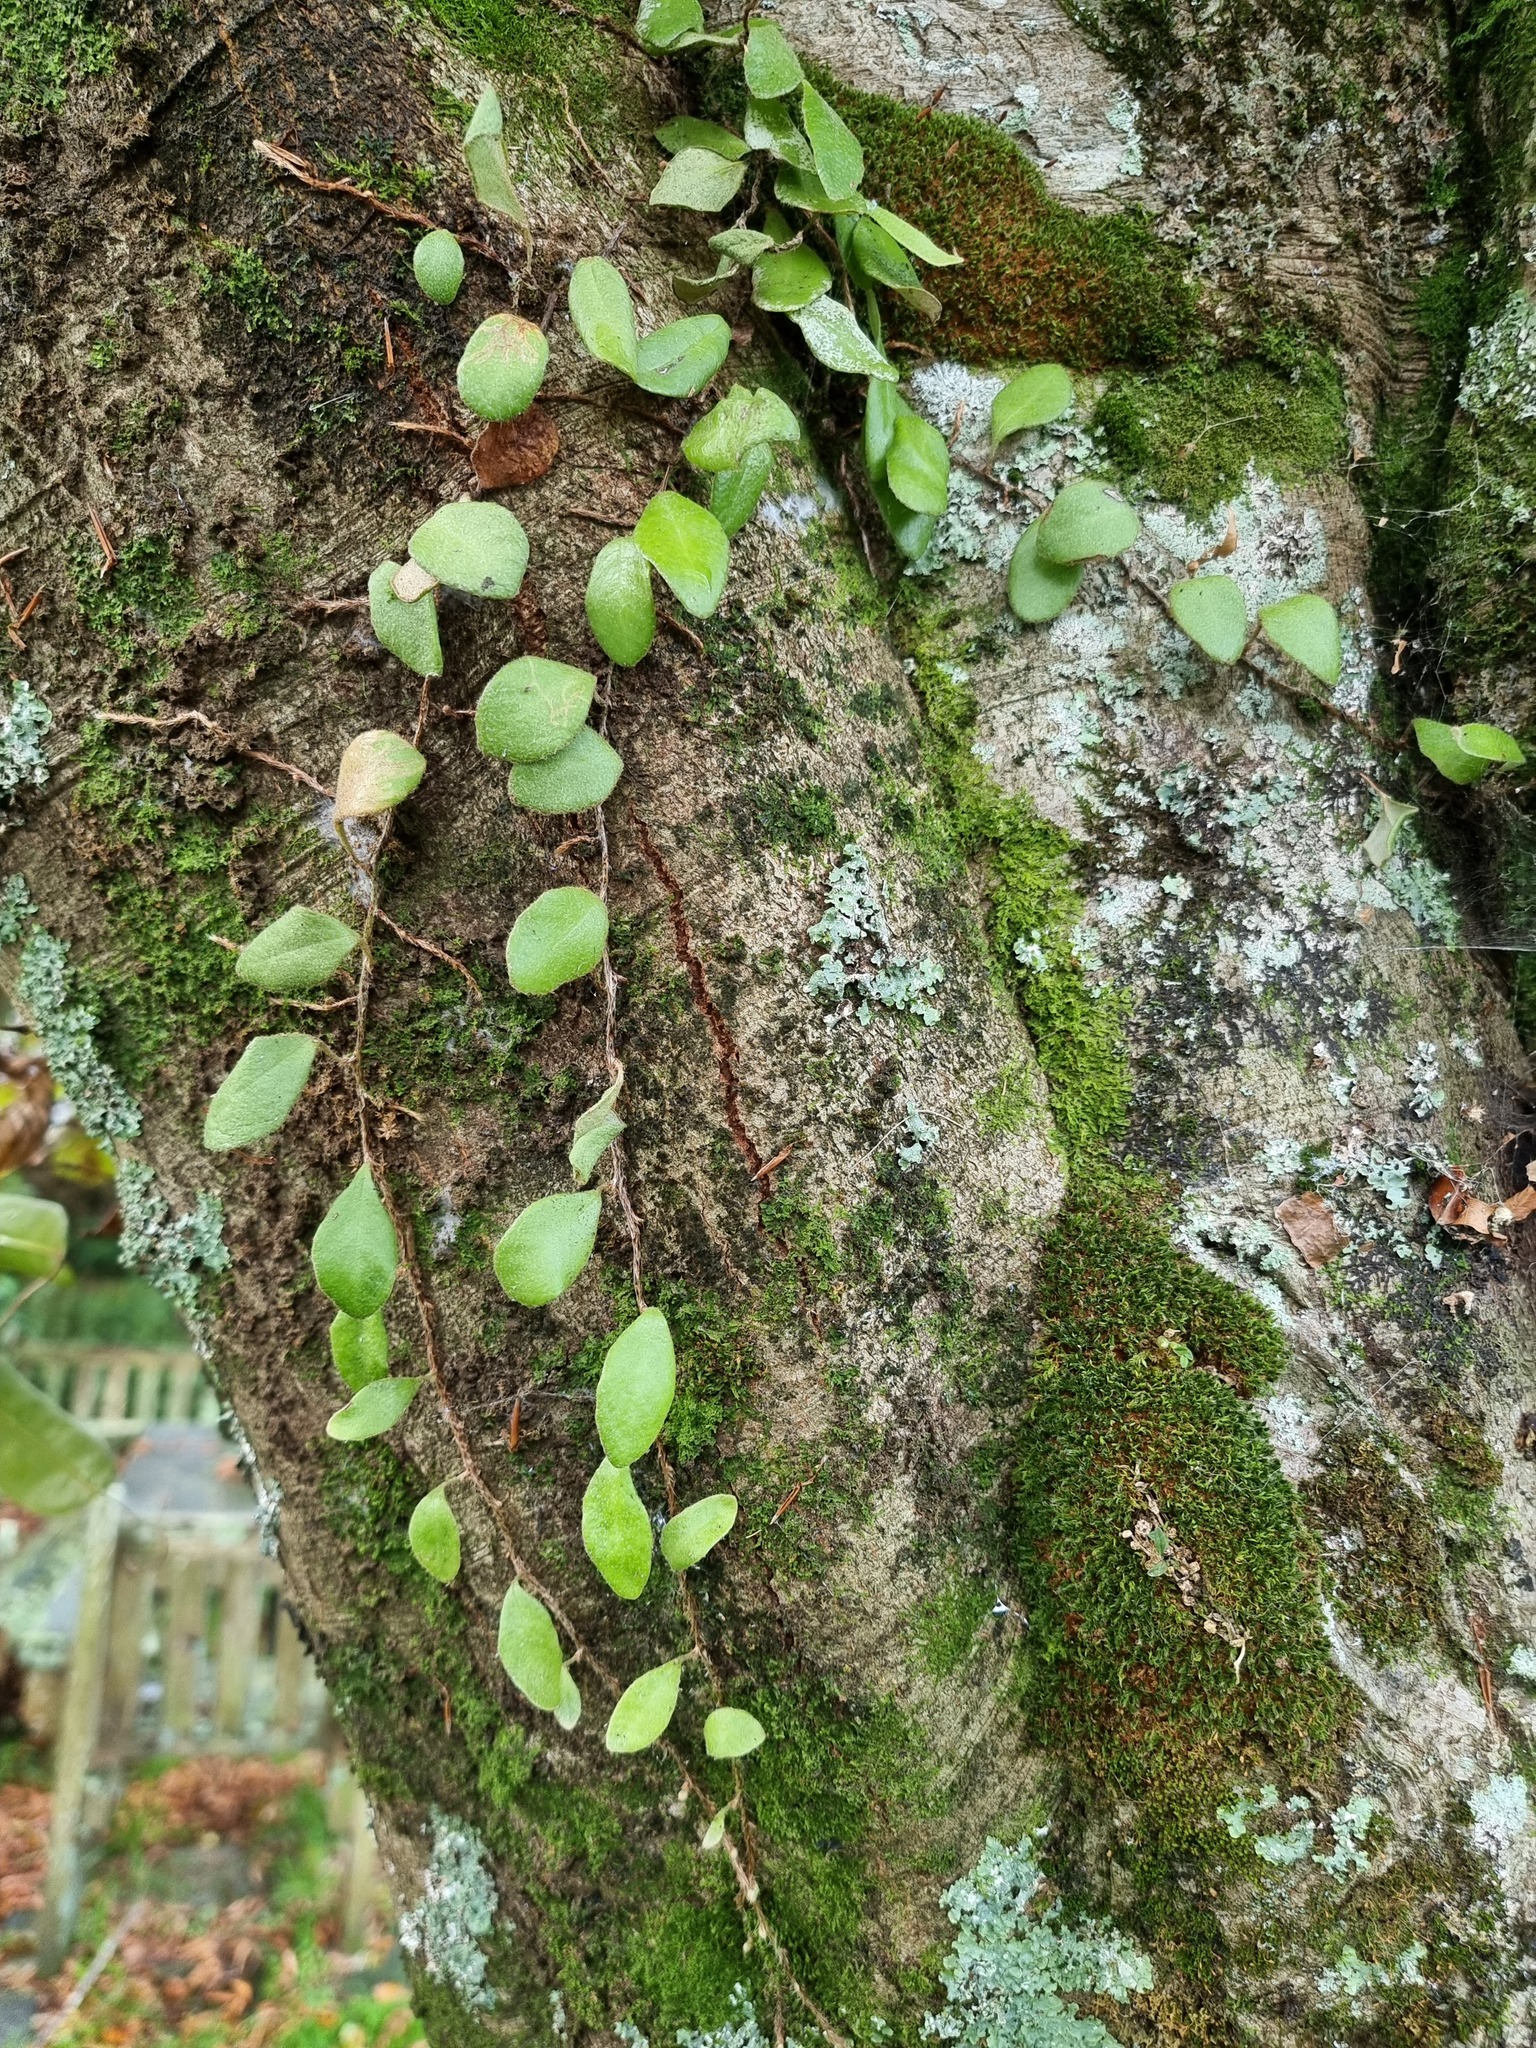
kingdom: Plantae
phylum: Tracheophyta
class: Polypodiopsida
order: Polypodiales
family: Polypodiaceae
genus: Pyrrosia
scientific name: Pyrrosia eleagnifolia
